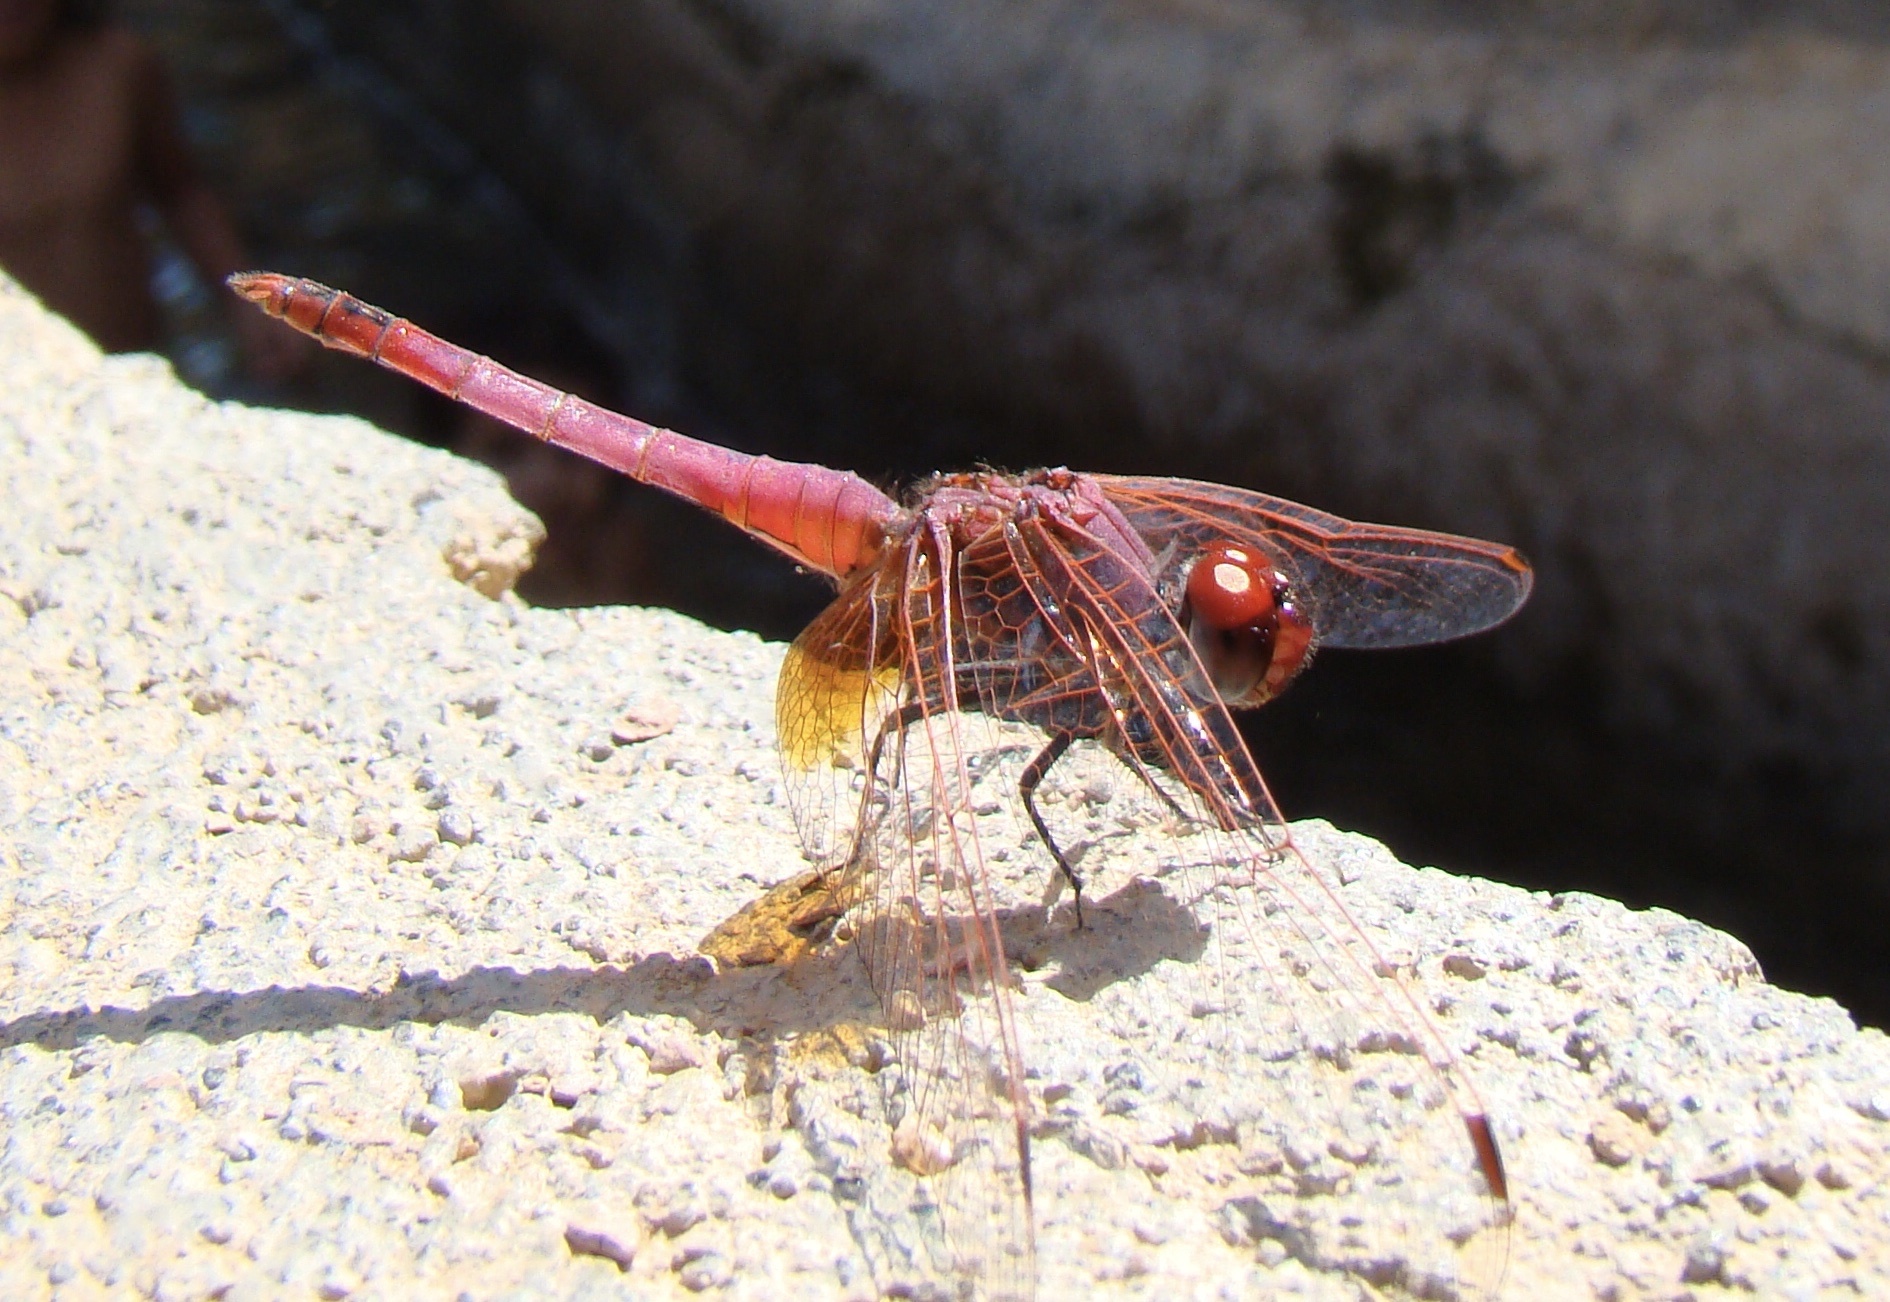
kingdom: Animalia
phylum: Arthropoda
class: Insecta
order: Odonata
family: Libellulidae
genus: Trithemis
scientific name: Trithemis annulata
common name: Violet dropwing
